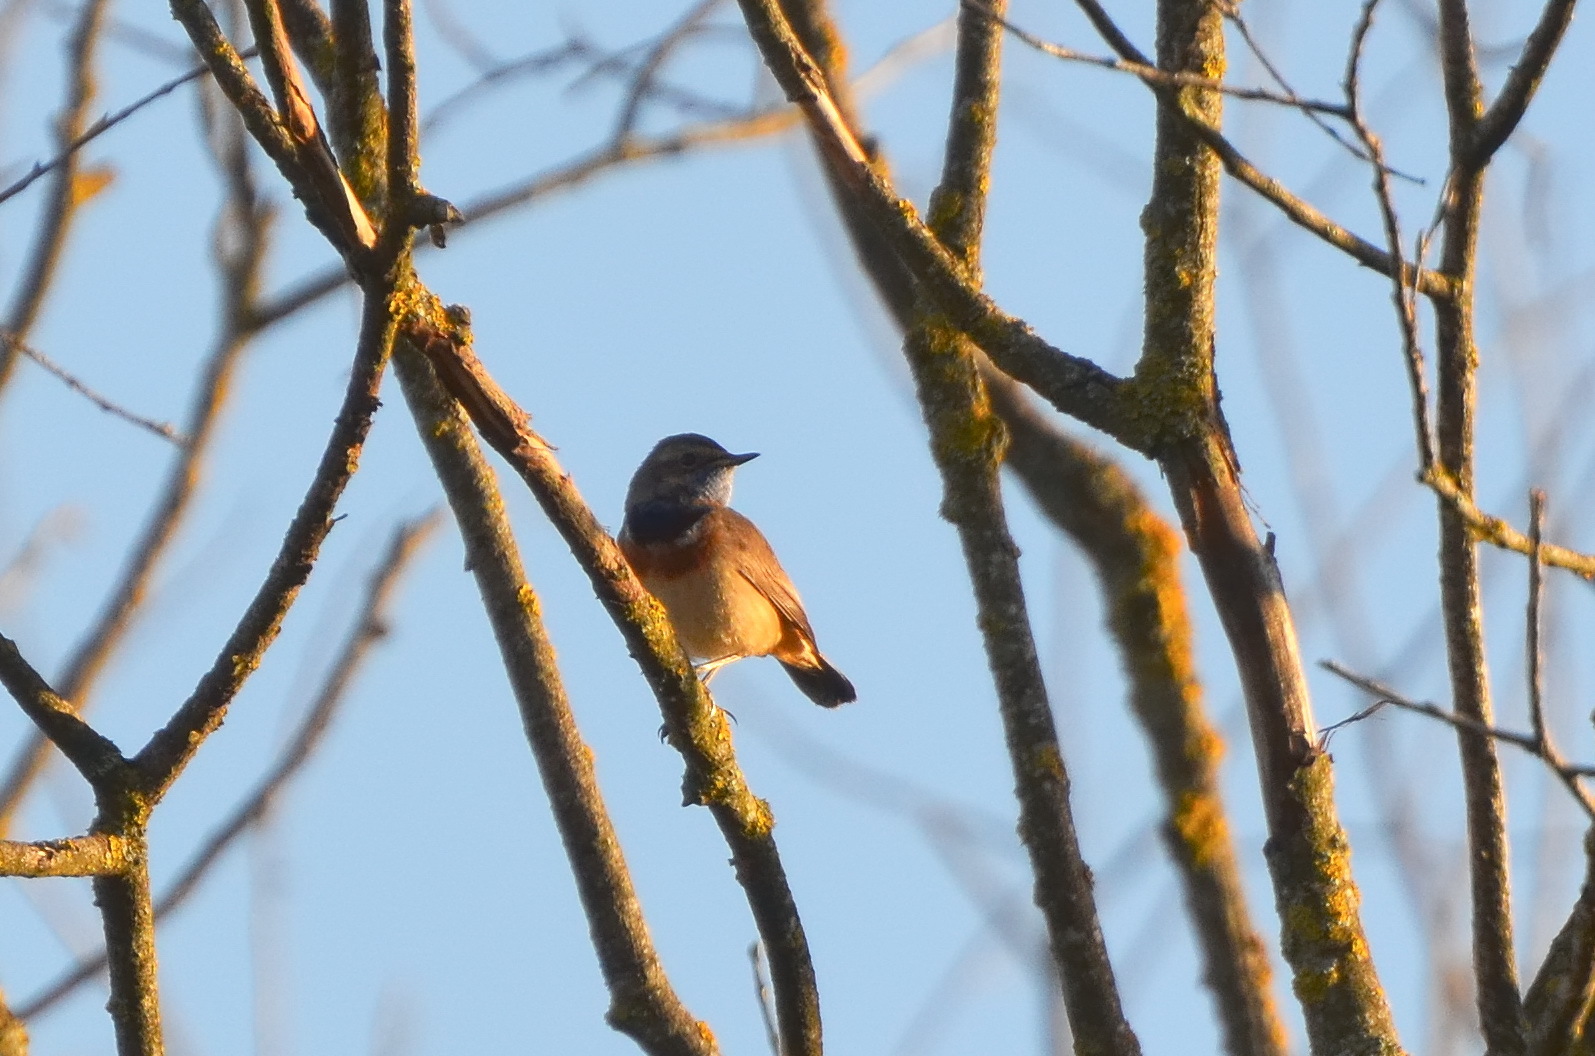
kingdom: Animalia
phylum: Chordata
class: Aves
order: Passeriformes
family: Muscicapidae
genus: Luscinia
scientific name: Luscinia svecica
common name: Bluethroat
